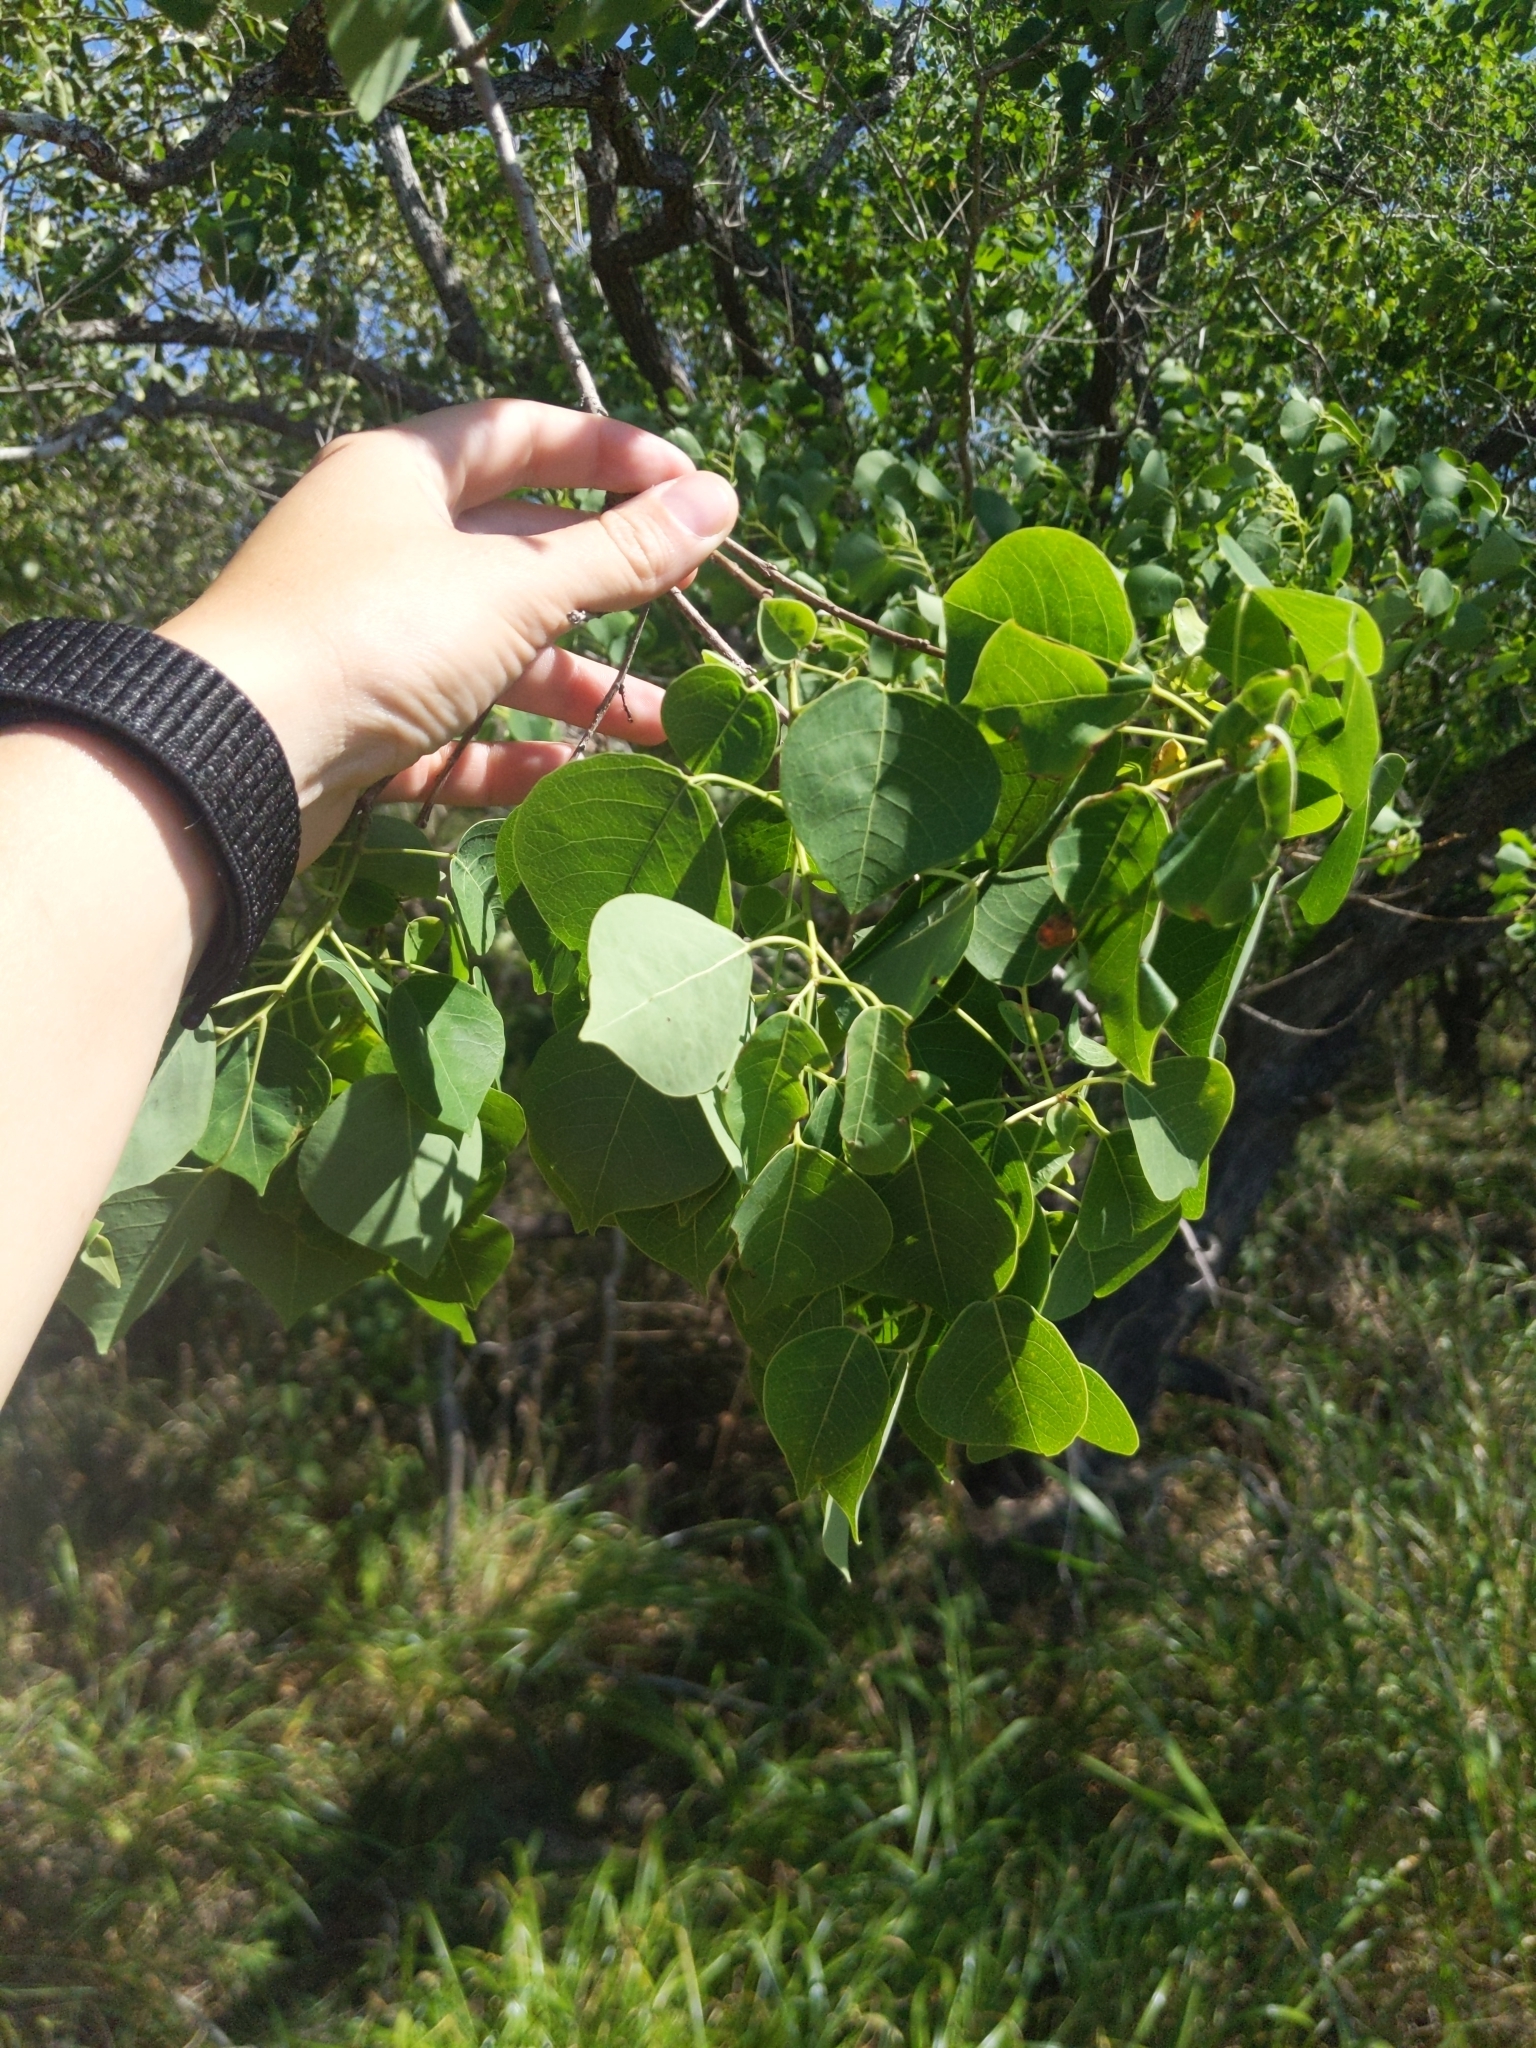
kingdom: Plantae
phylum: Tracheophyta
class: Magnoliopsida
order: Malpighiales
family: Euphorbiaceae
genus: Triadica
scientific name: Triadica sebifera
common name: Chinese tallow
